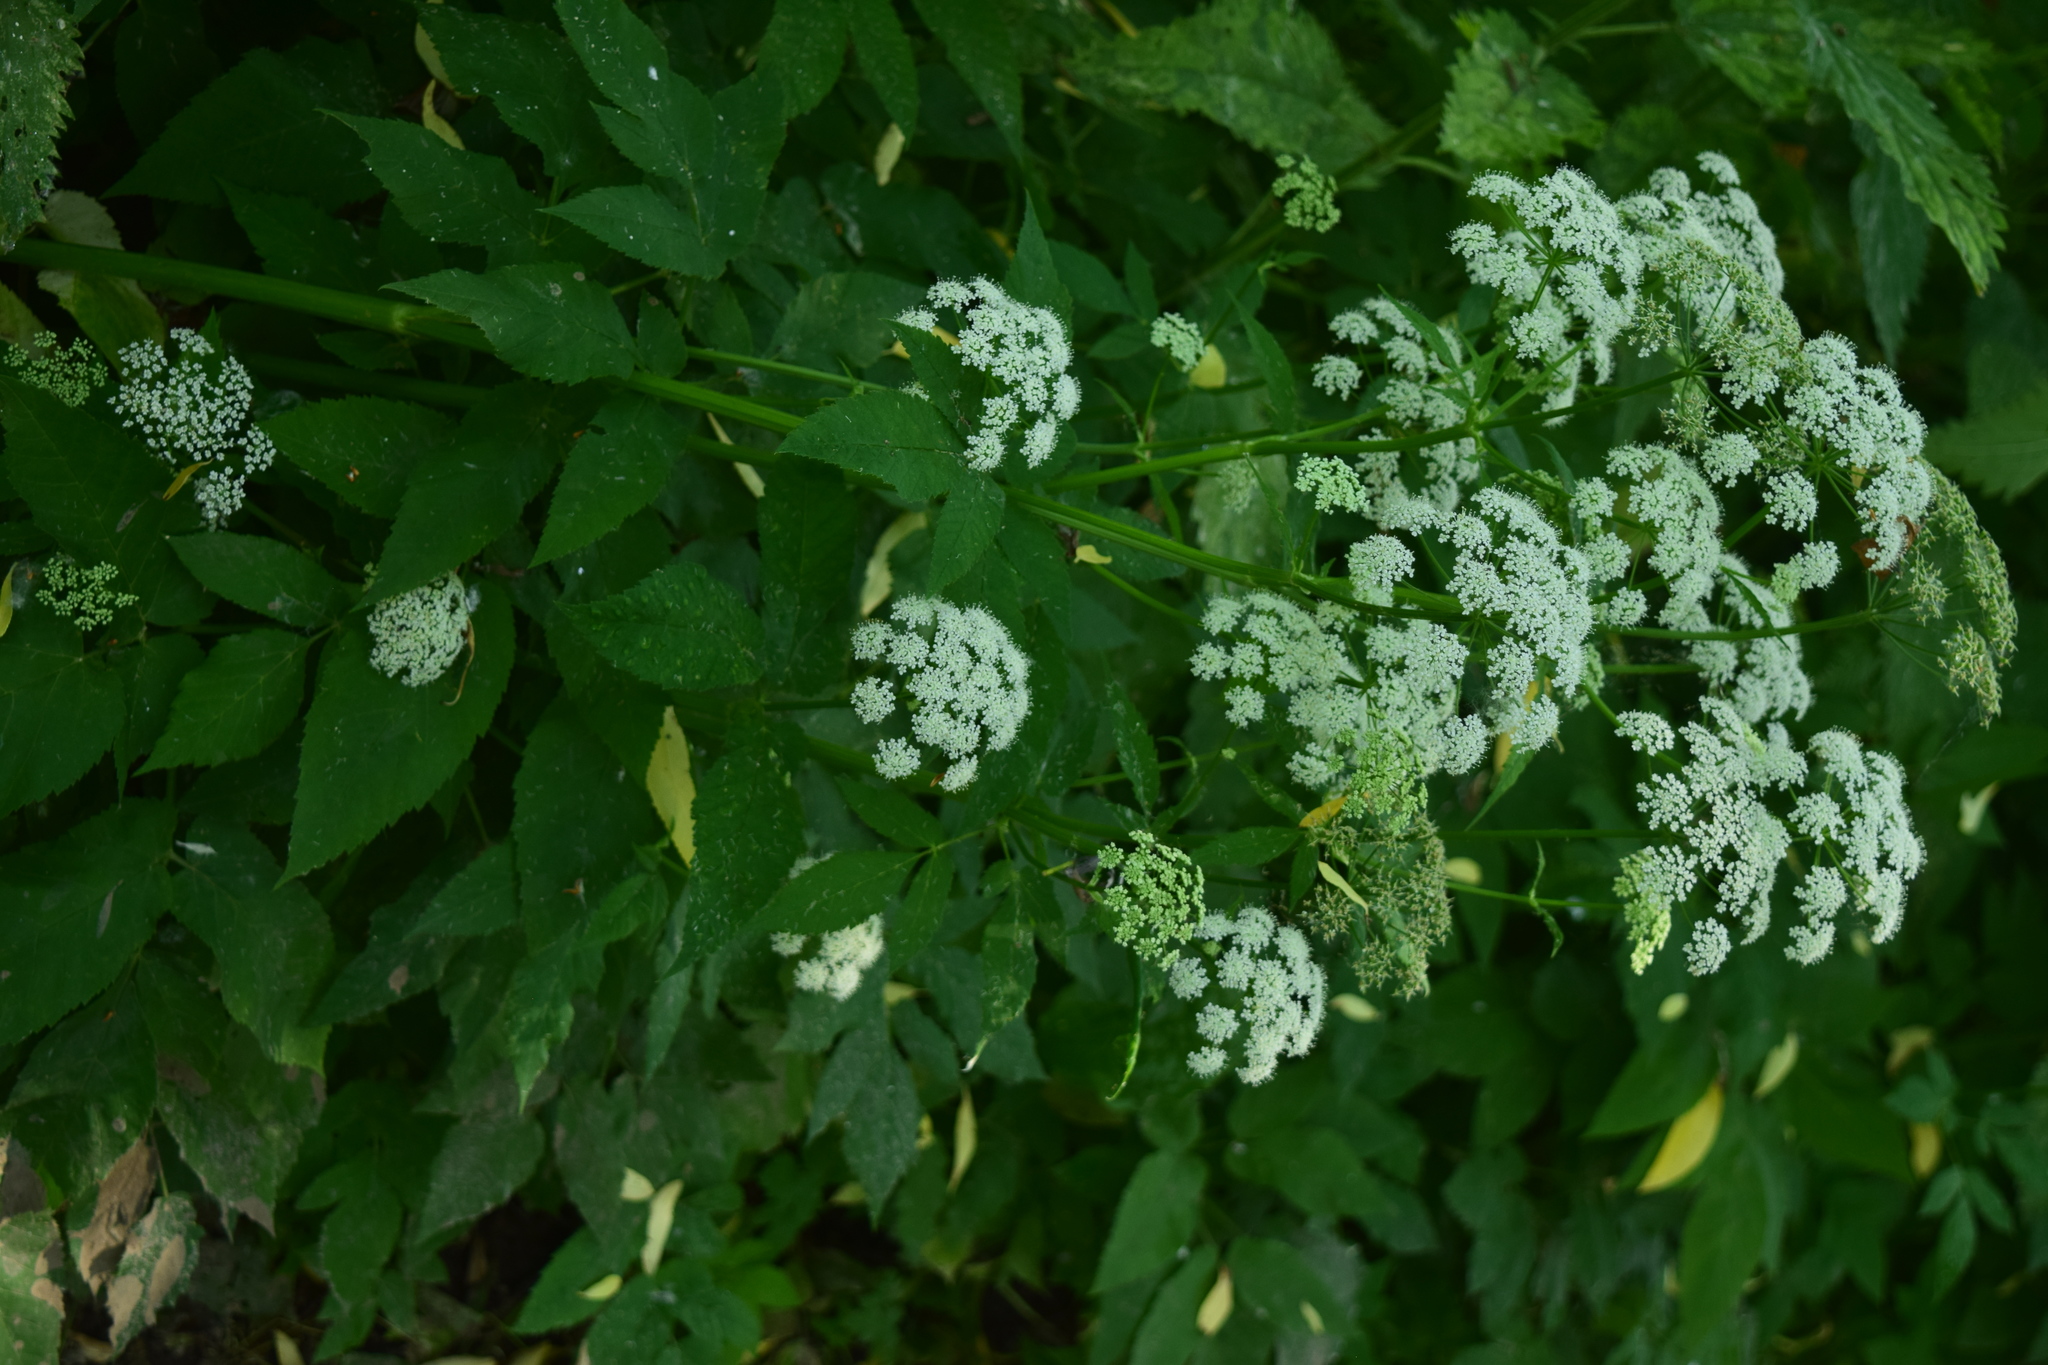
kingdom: Plantae
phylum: Tracheophyta
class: Magnoliopsida
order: Apiales
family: Apiaceae
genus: Aegopodium
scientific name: Aegopodium podagraria
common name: Ground-elder
